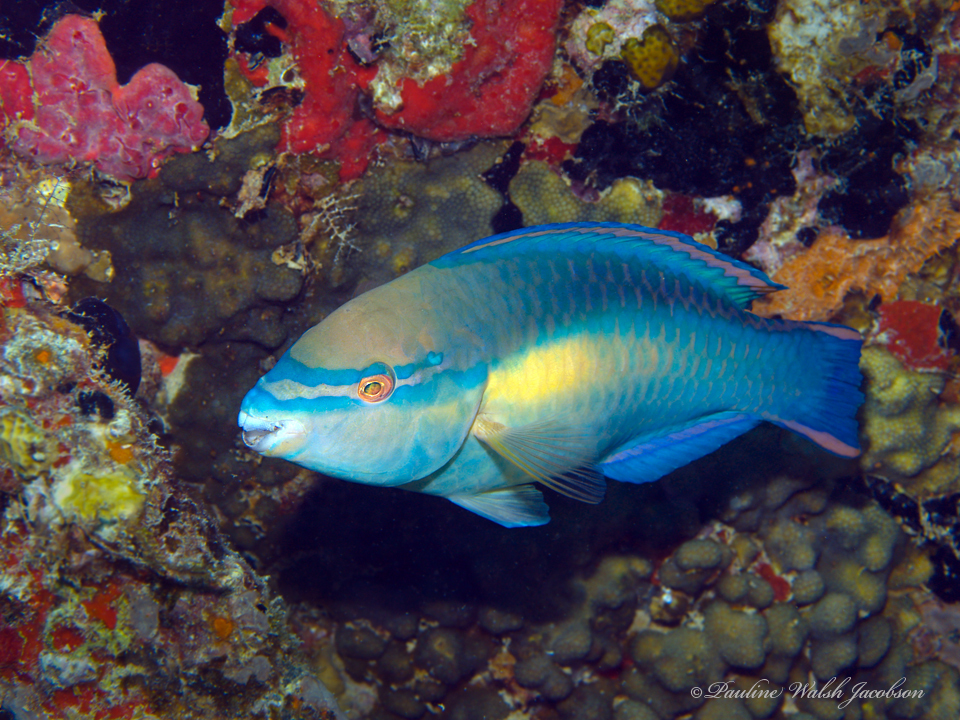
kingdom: Animalia
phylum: Chordata
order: Perciformes
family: Scaridae
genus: Scarus
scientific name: Scarus taeniopterus
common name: Princess parrotfish
